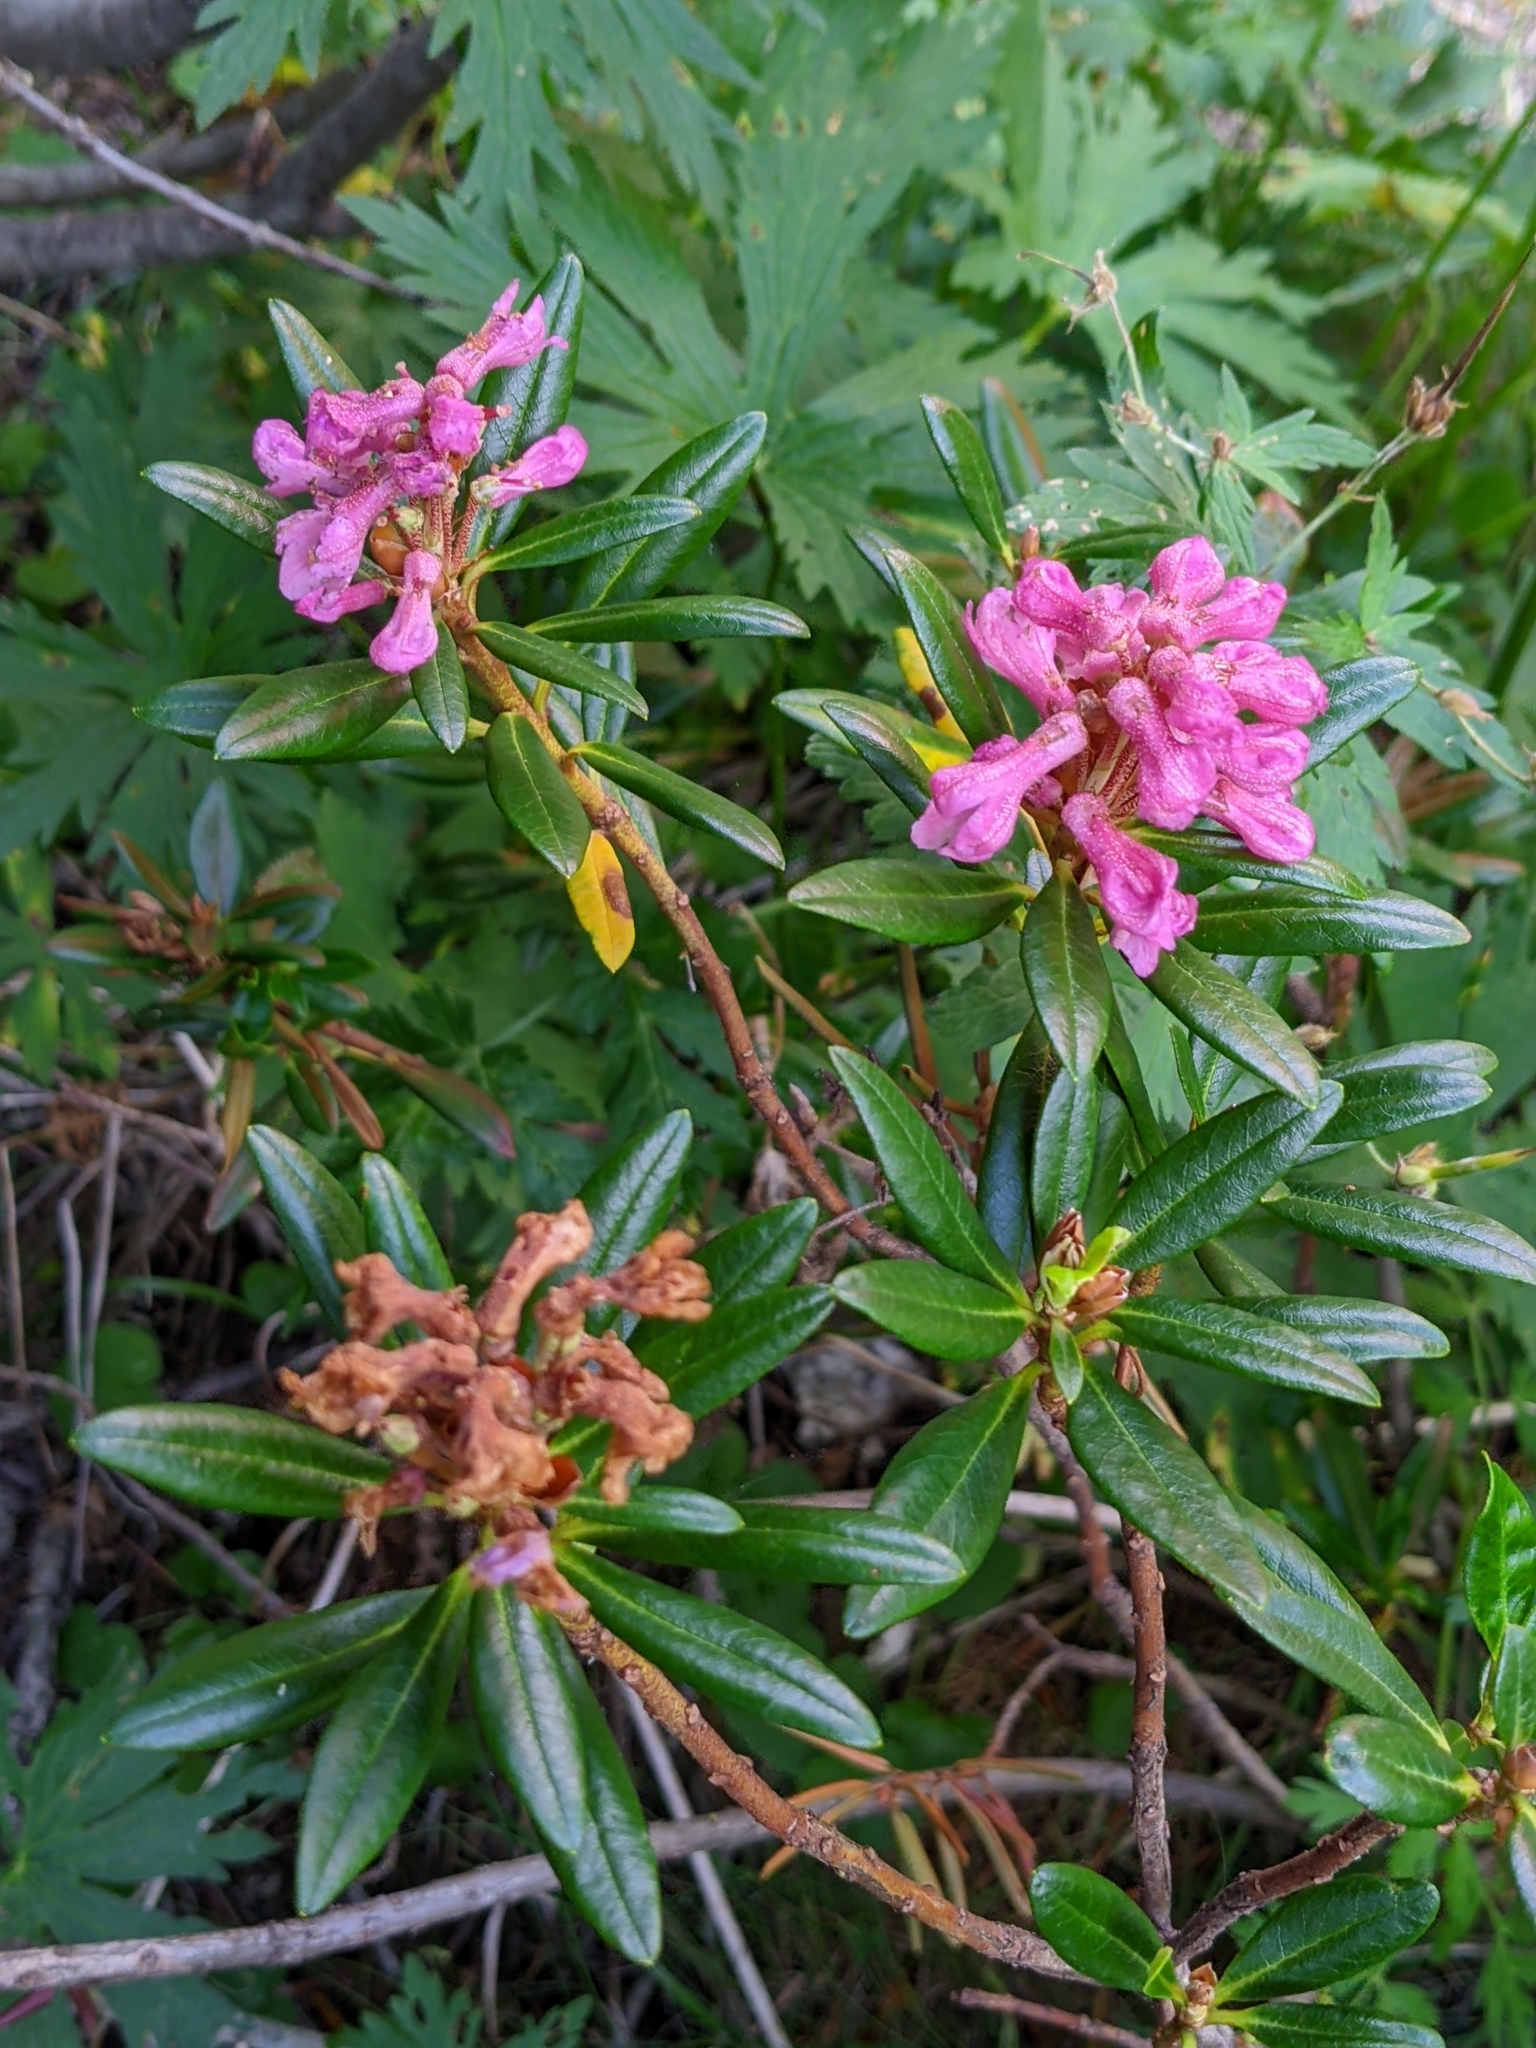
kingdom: Plantae
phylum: Tracheophyta
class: Magnoliopsida
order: Ericales
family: Ericaceae
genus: Rhododendron
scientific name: Rhododendron ferrugineum
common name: Alpenrose
